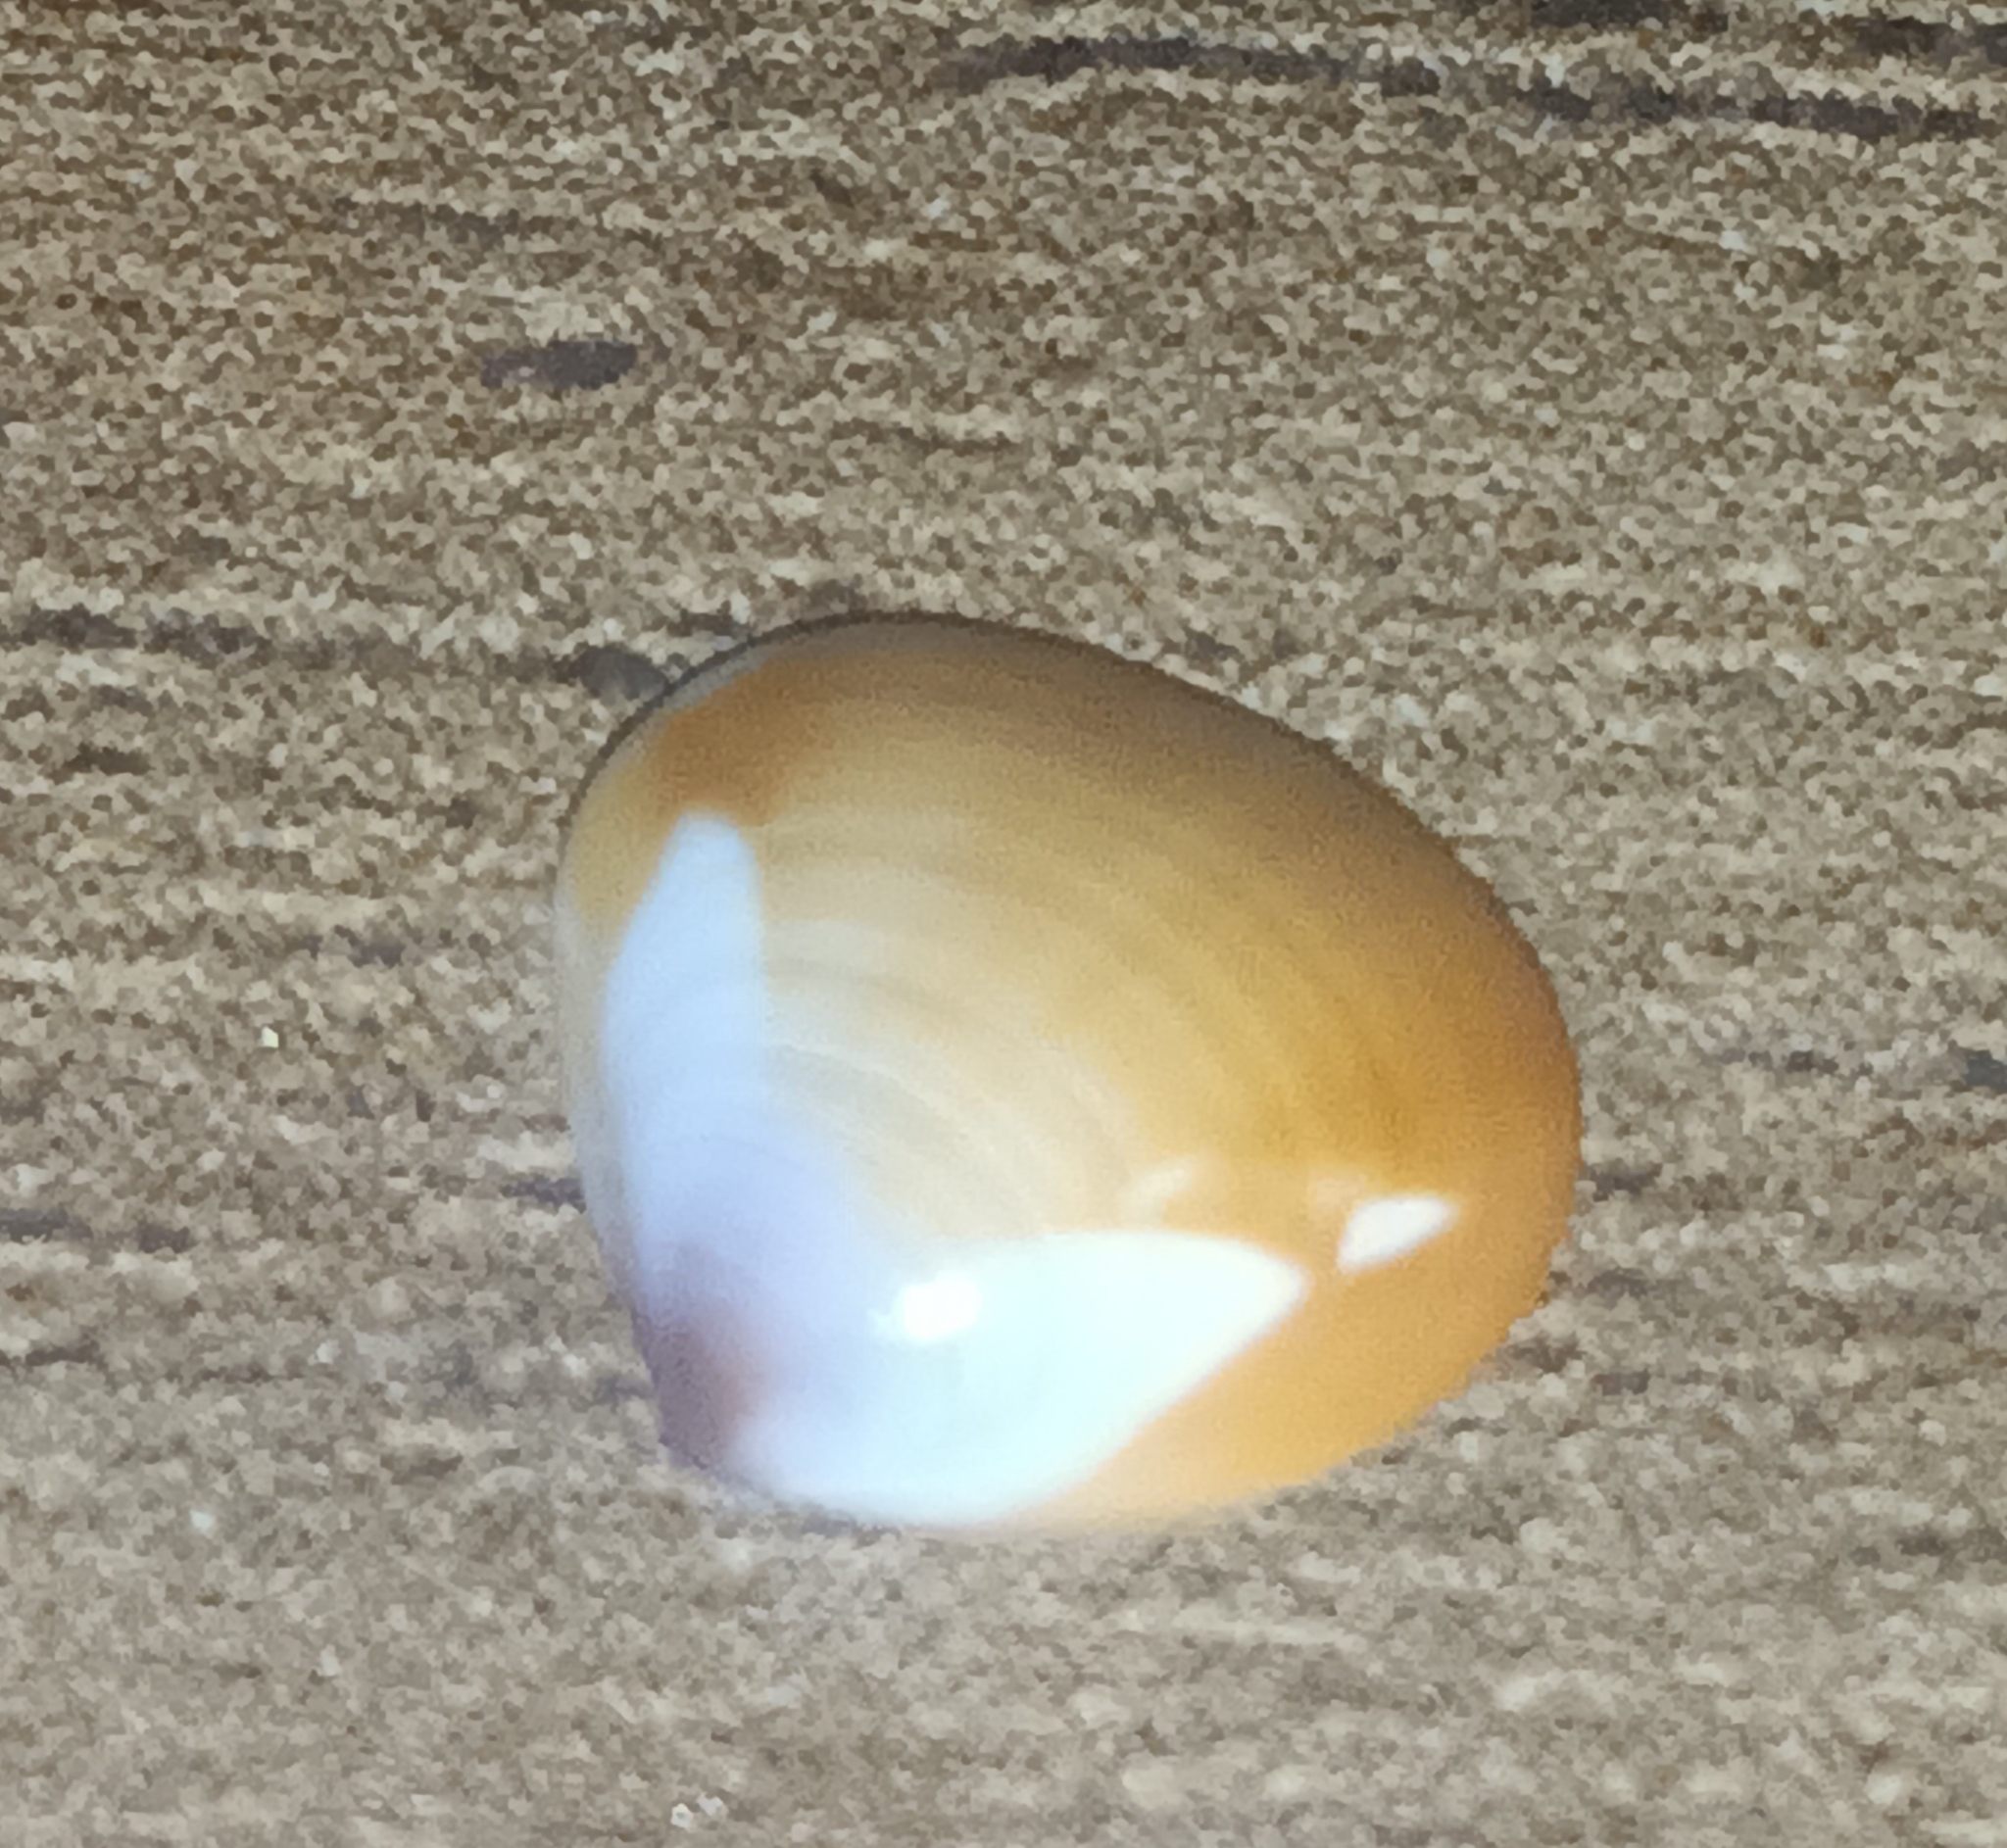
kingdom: Animalia
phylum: Mollusca
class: Bivalvia
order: Venerida
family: Veneridae
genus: Tivela
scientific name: Tivela byronensis
